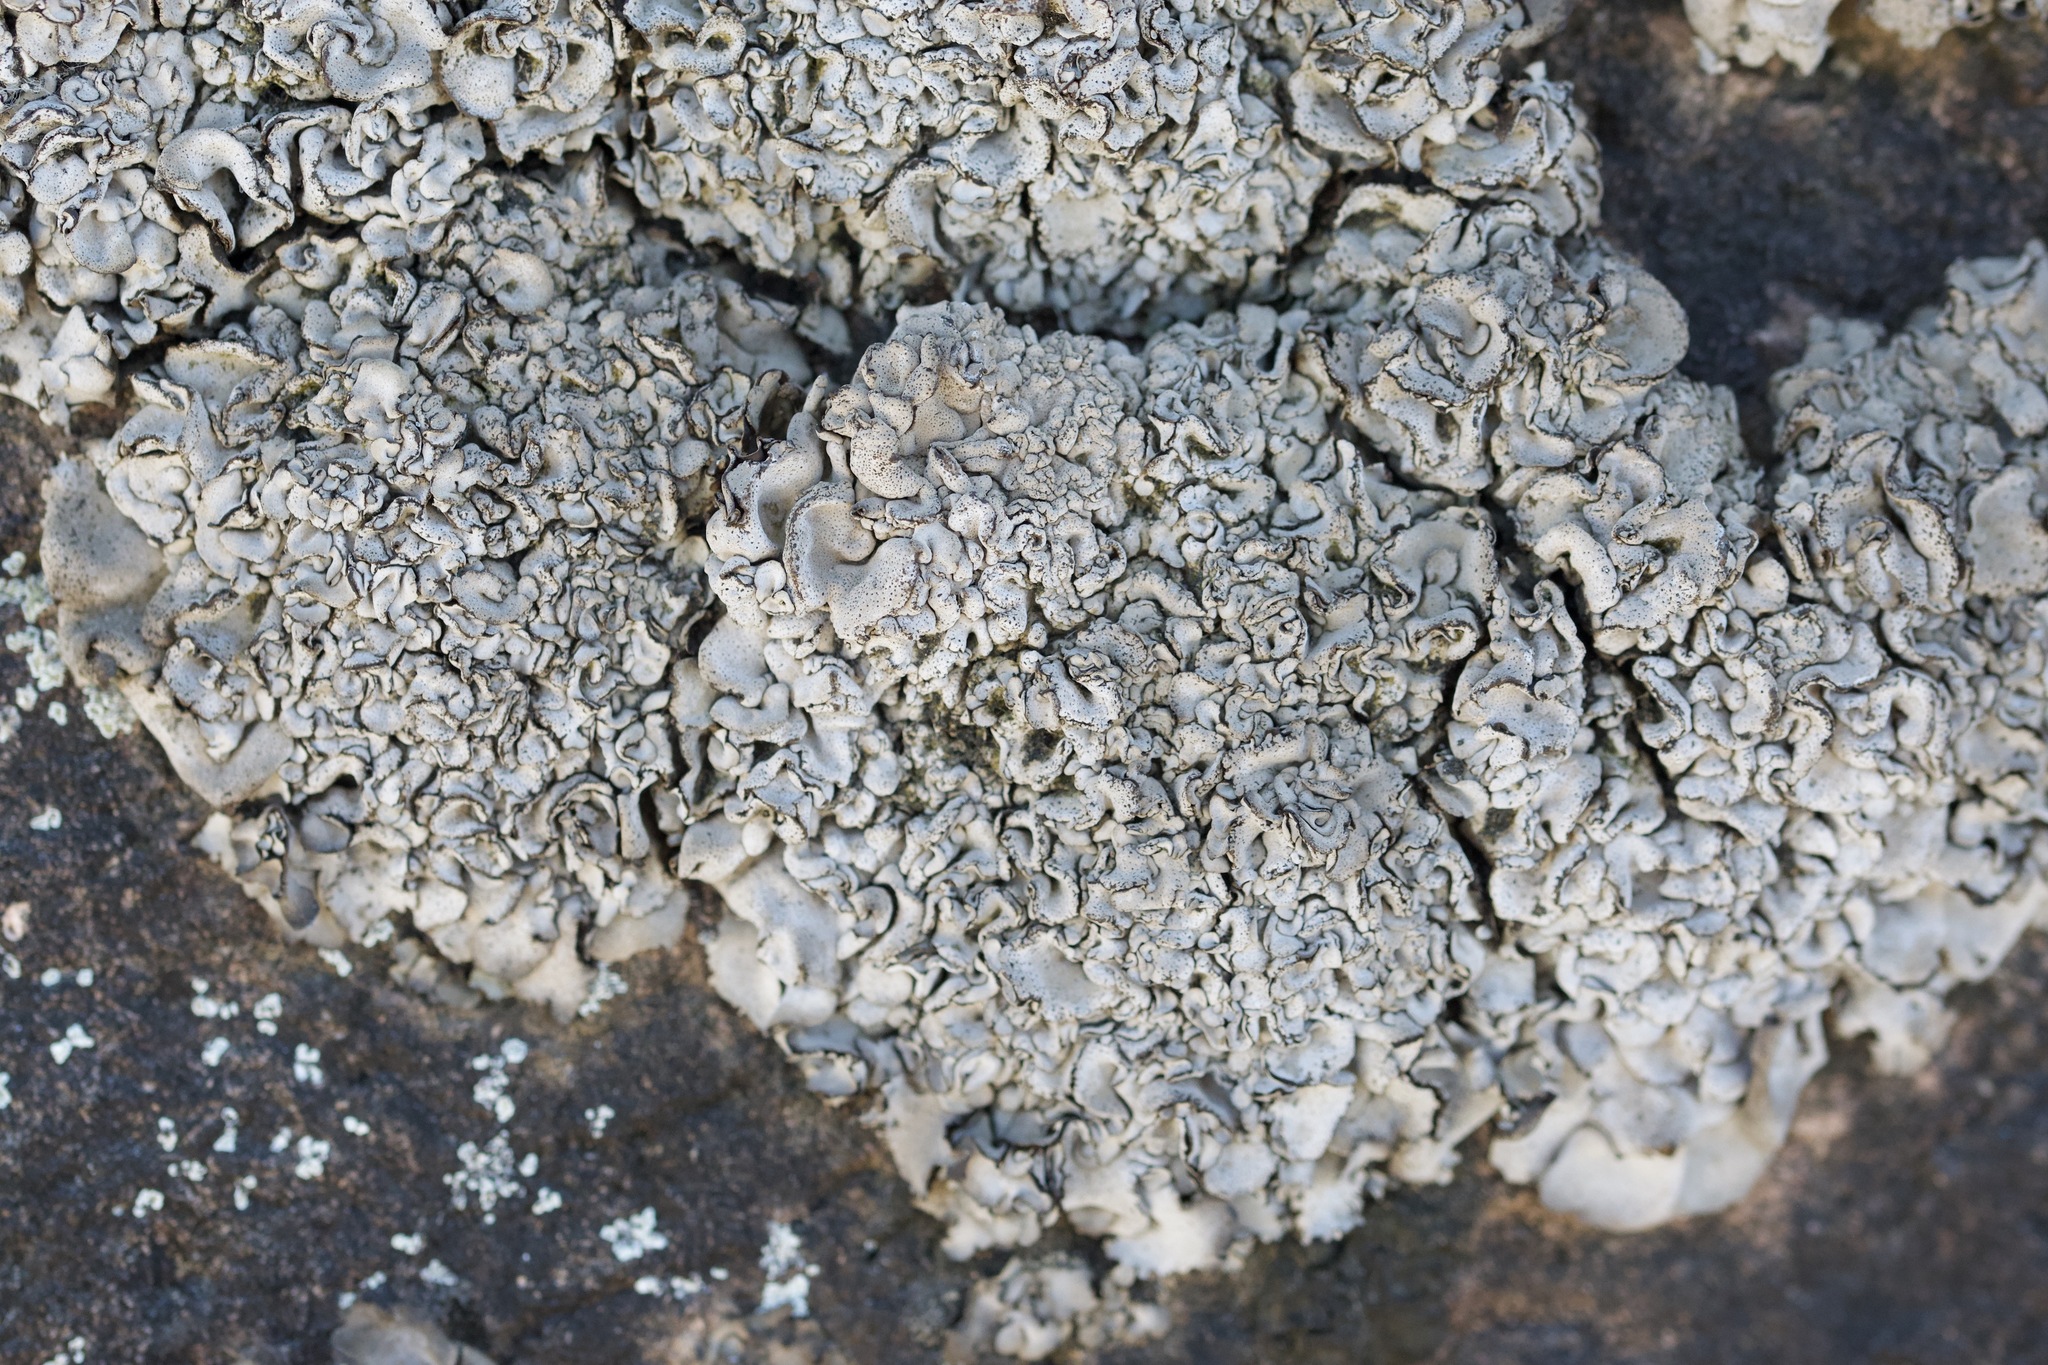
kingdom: Fungi
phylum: Ascomycota
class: Eurotiomycetes
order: Verrucariales
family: Verrucariaceae
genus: Dermatocarpon
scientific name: Dermatocarpon intestiniforme
